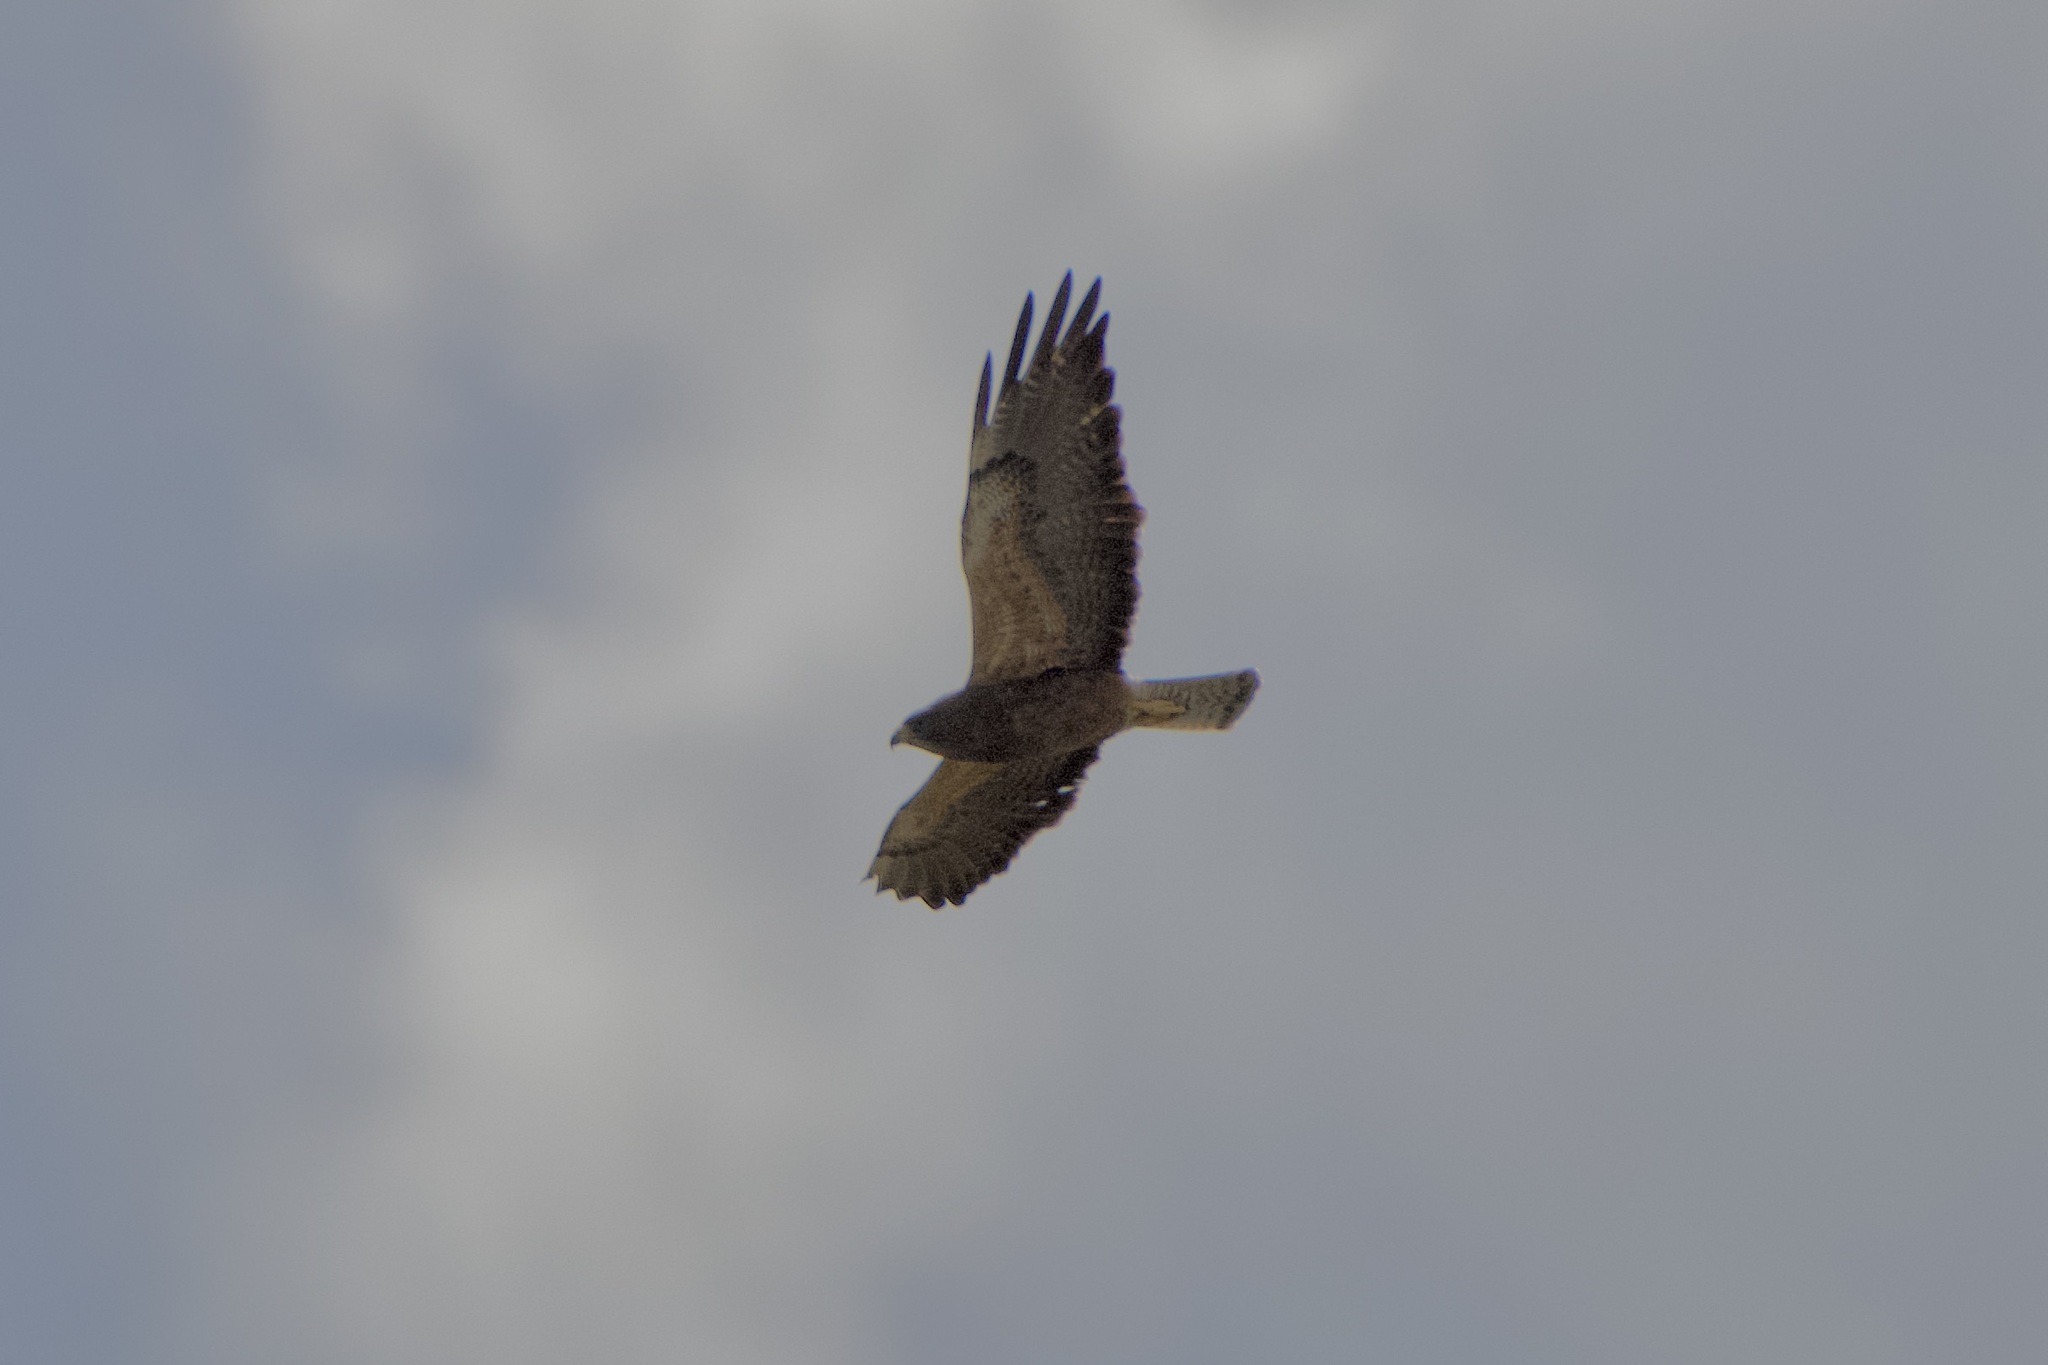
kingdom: Animalia
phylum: Chordata
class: Aves
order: Accipitriformes
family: Accipitridae
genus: Buteo
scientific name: Buteo swainsoni
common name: Swainson's hawk
